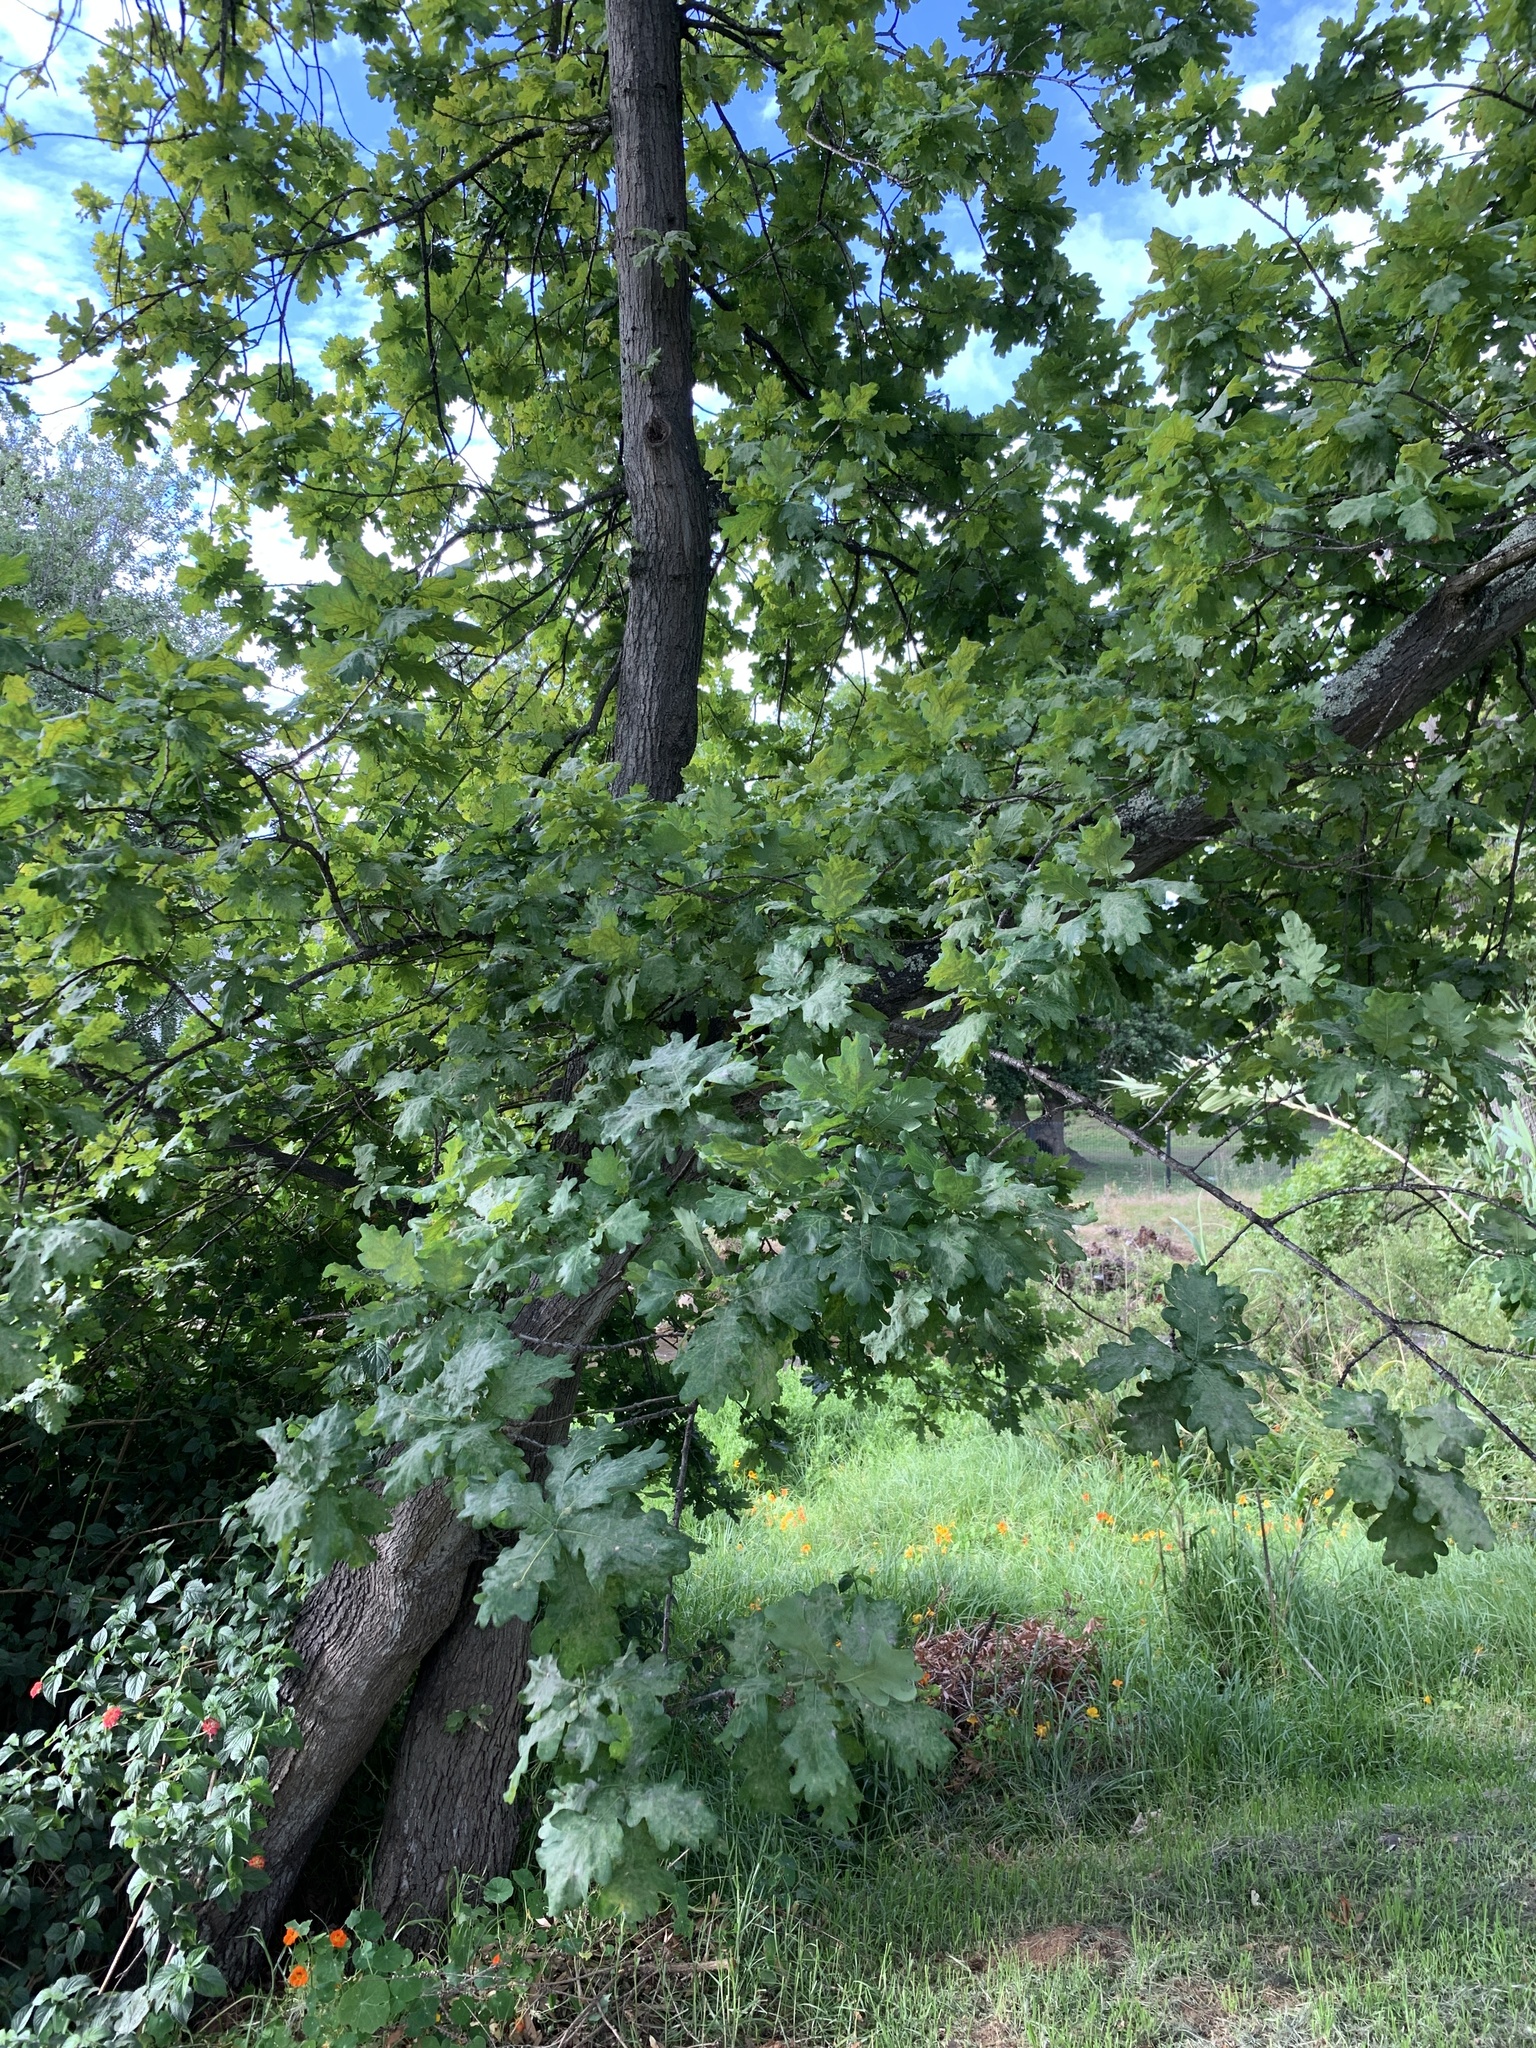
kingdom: Plantae
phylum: Tracheophyta
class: Magnoliopsida
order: Fagales
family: Fagaceae
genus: Quercus
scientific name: Quercus robur
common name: Pedunculate oak
